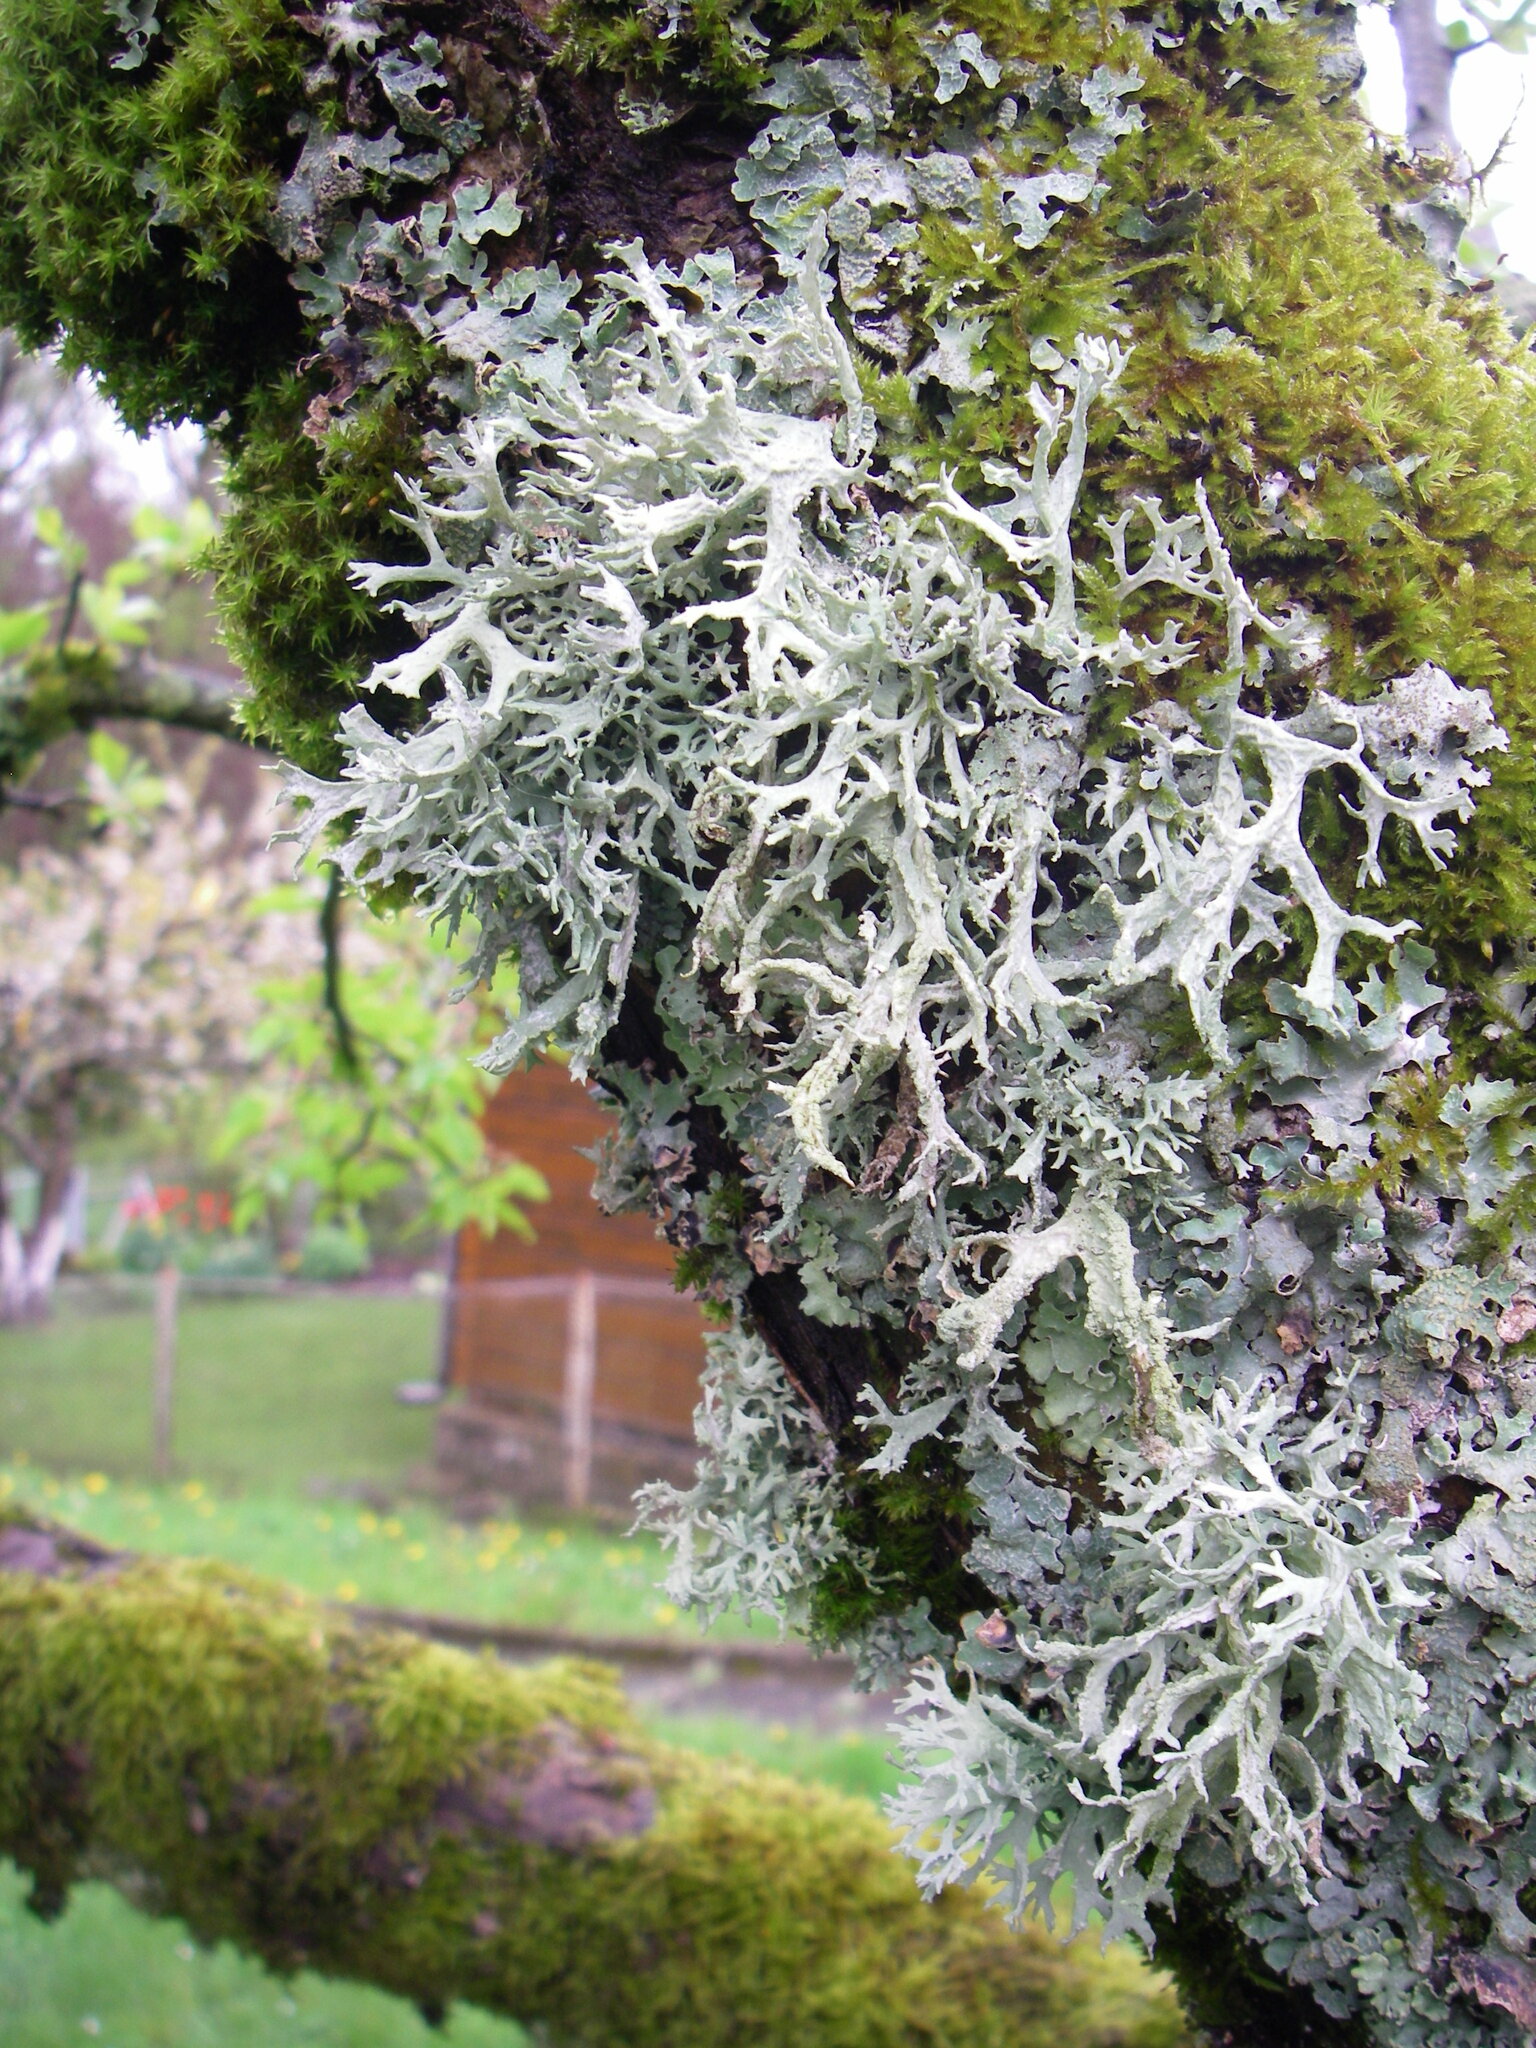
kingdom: Fungi
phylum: Ascomycota
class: Lecanoromycetes
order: Lecanorales
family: Parmeliaceae
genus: Evernia
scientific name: Evernia prunastri
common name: Oak moss
